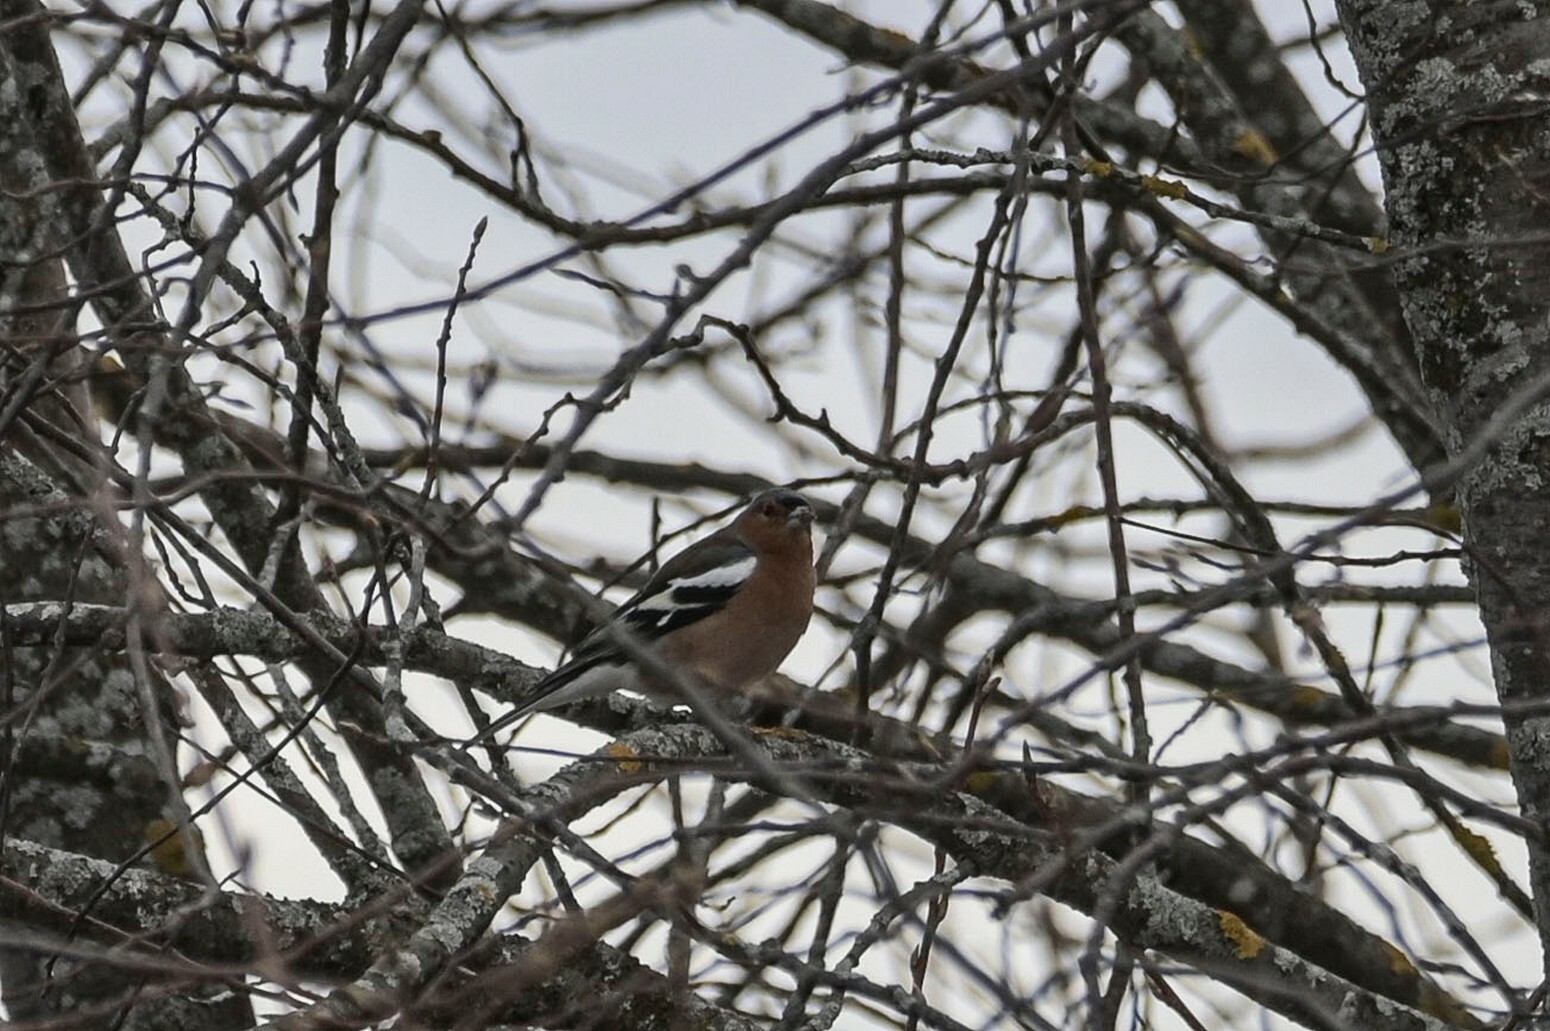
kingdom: Animalia
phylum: Chordata
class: Aves
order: Passeriformes
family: Fringillidae
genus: Fringilla
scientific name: Fringilla coelebs
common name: Common chaffinch
